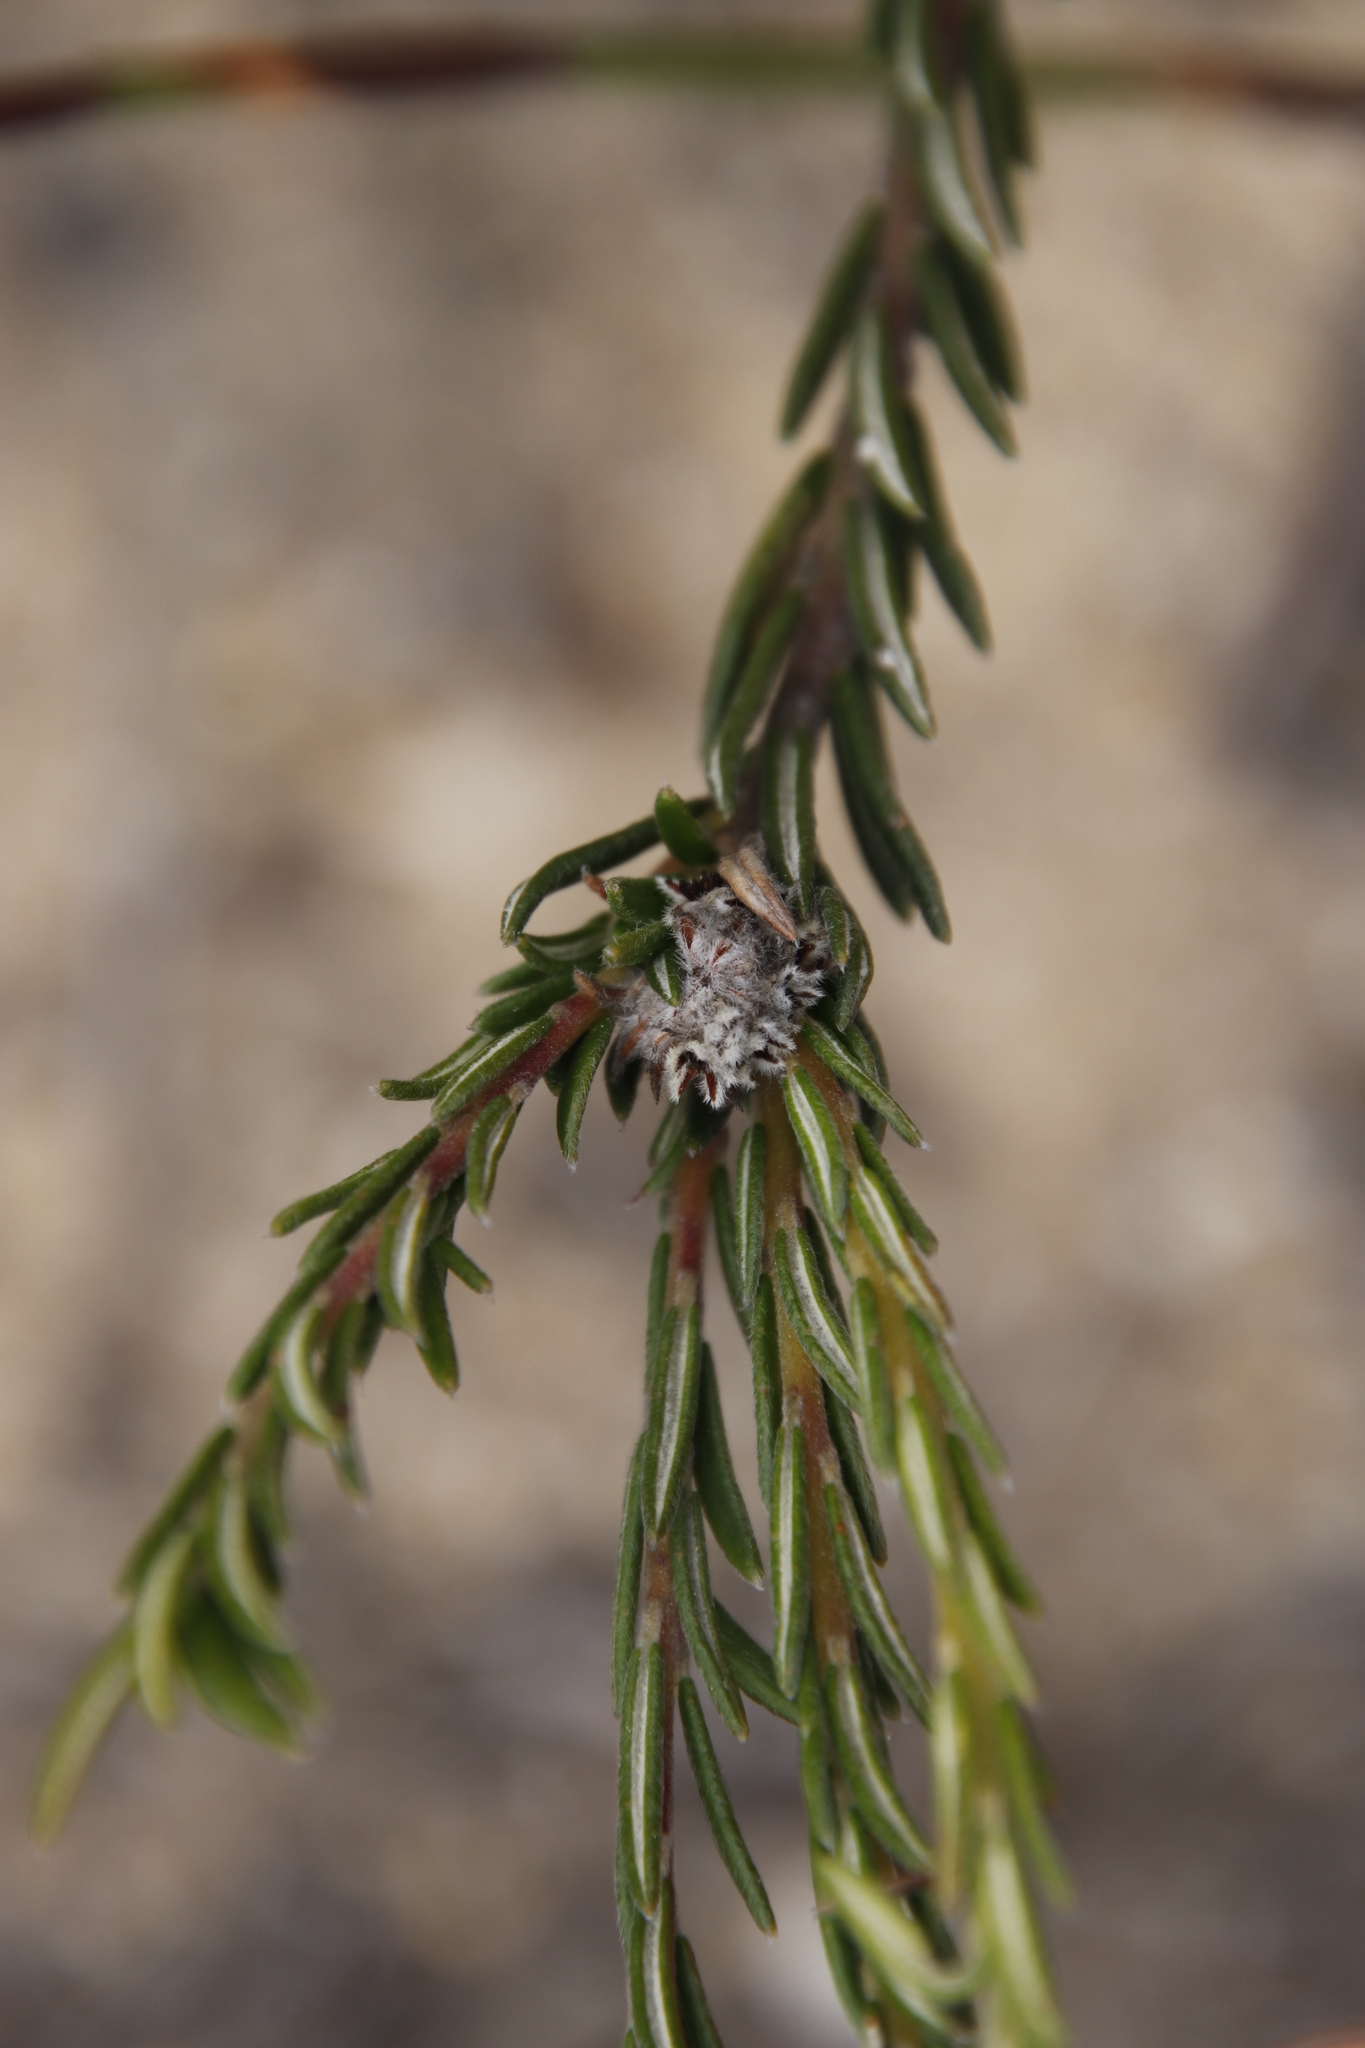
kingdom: Plantae
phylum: Tracheophyta
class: Magnoliopsida
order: Rosales
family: Rhamnaceae
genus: Phylica
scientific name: Phylica floribunda
